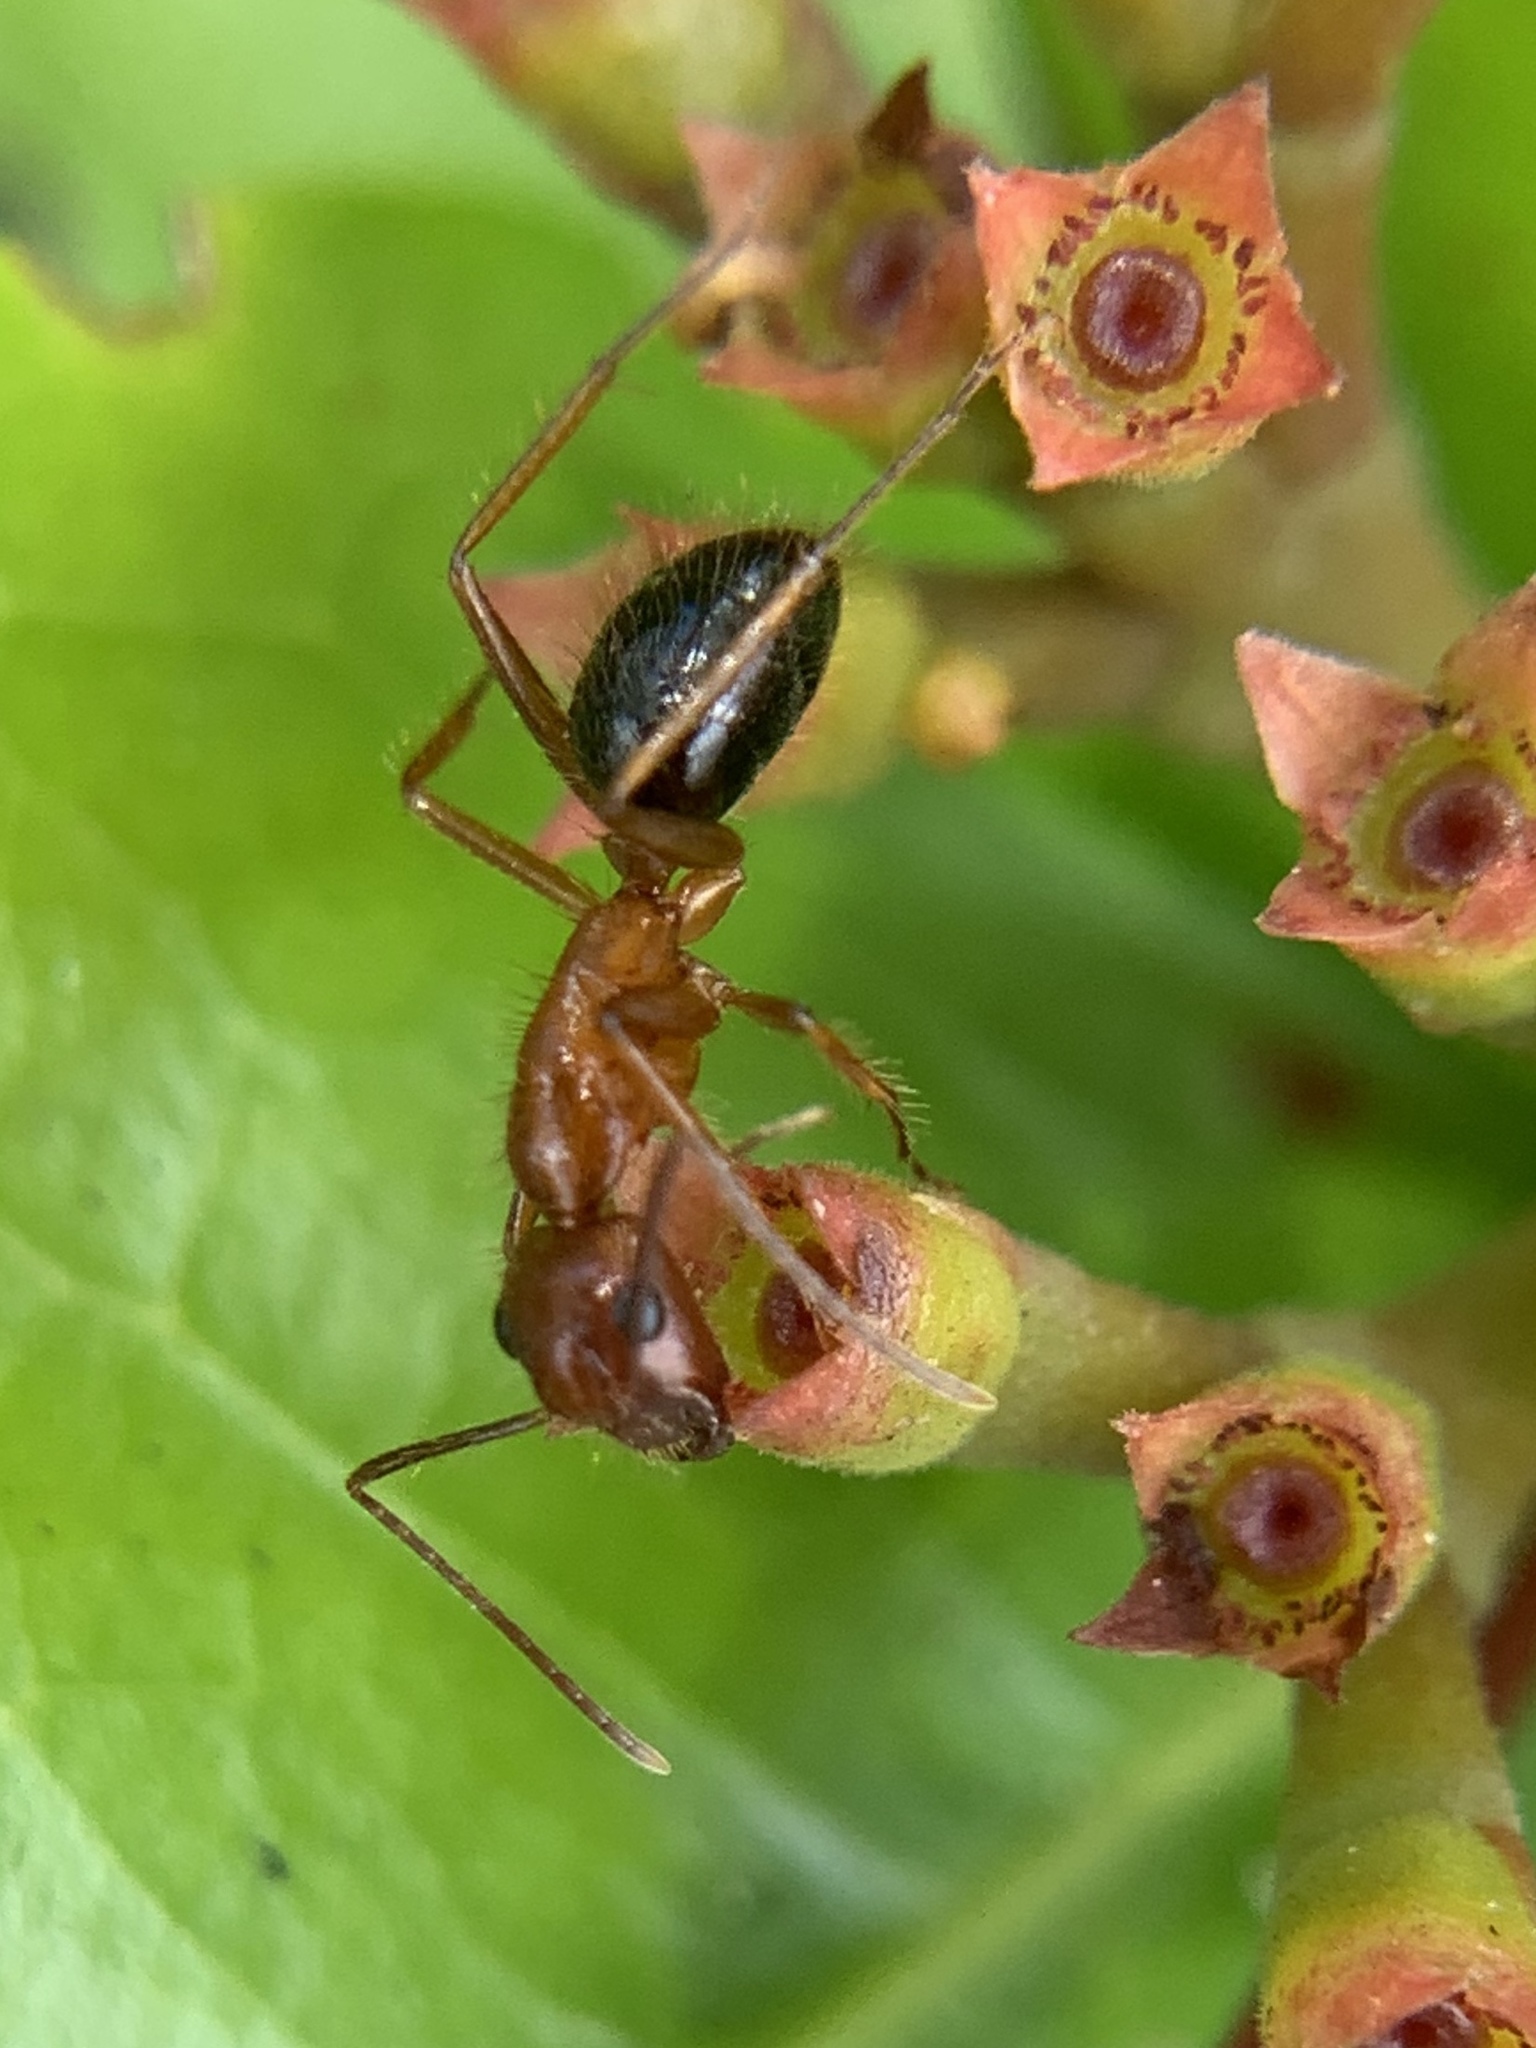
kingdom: Animalia
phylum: Arthropoda
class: Insecta
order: Hymenoptera
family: Formicidae
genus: Camponotus
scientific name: Camponotus floridanus
